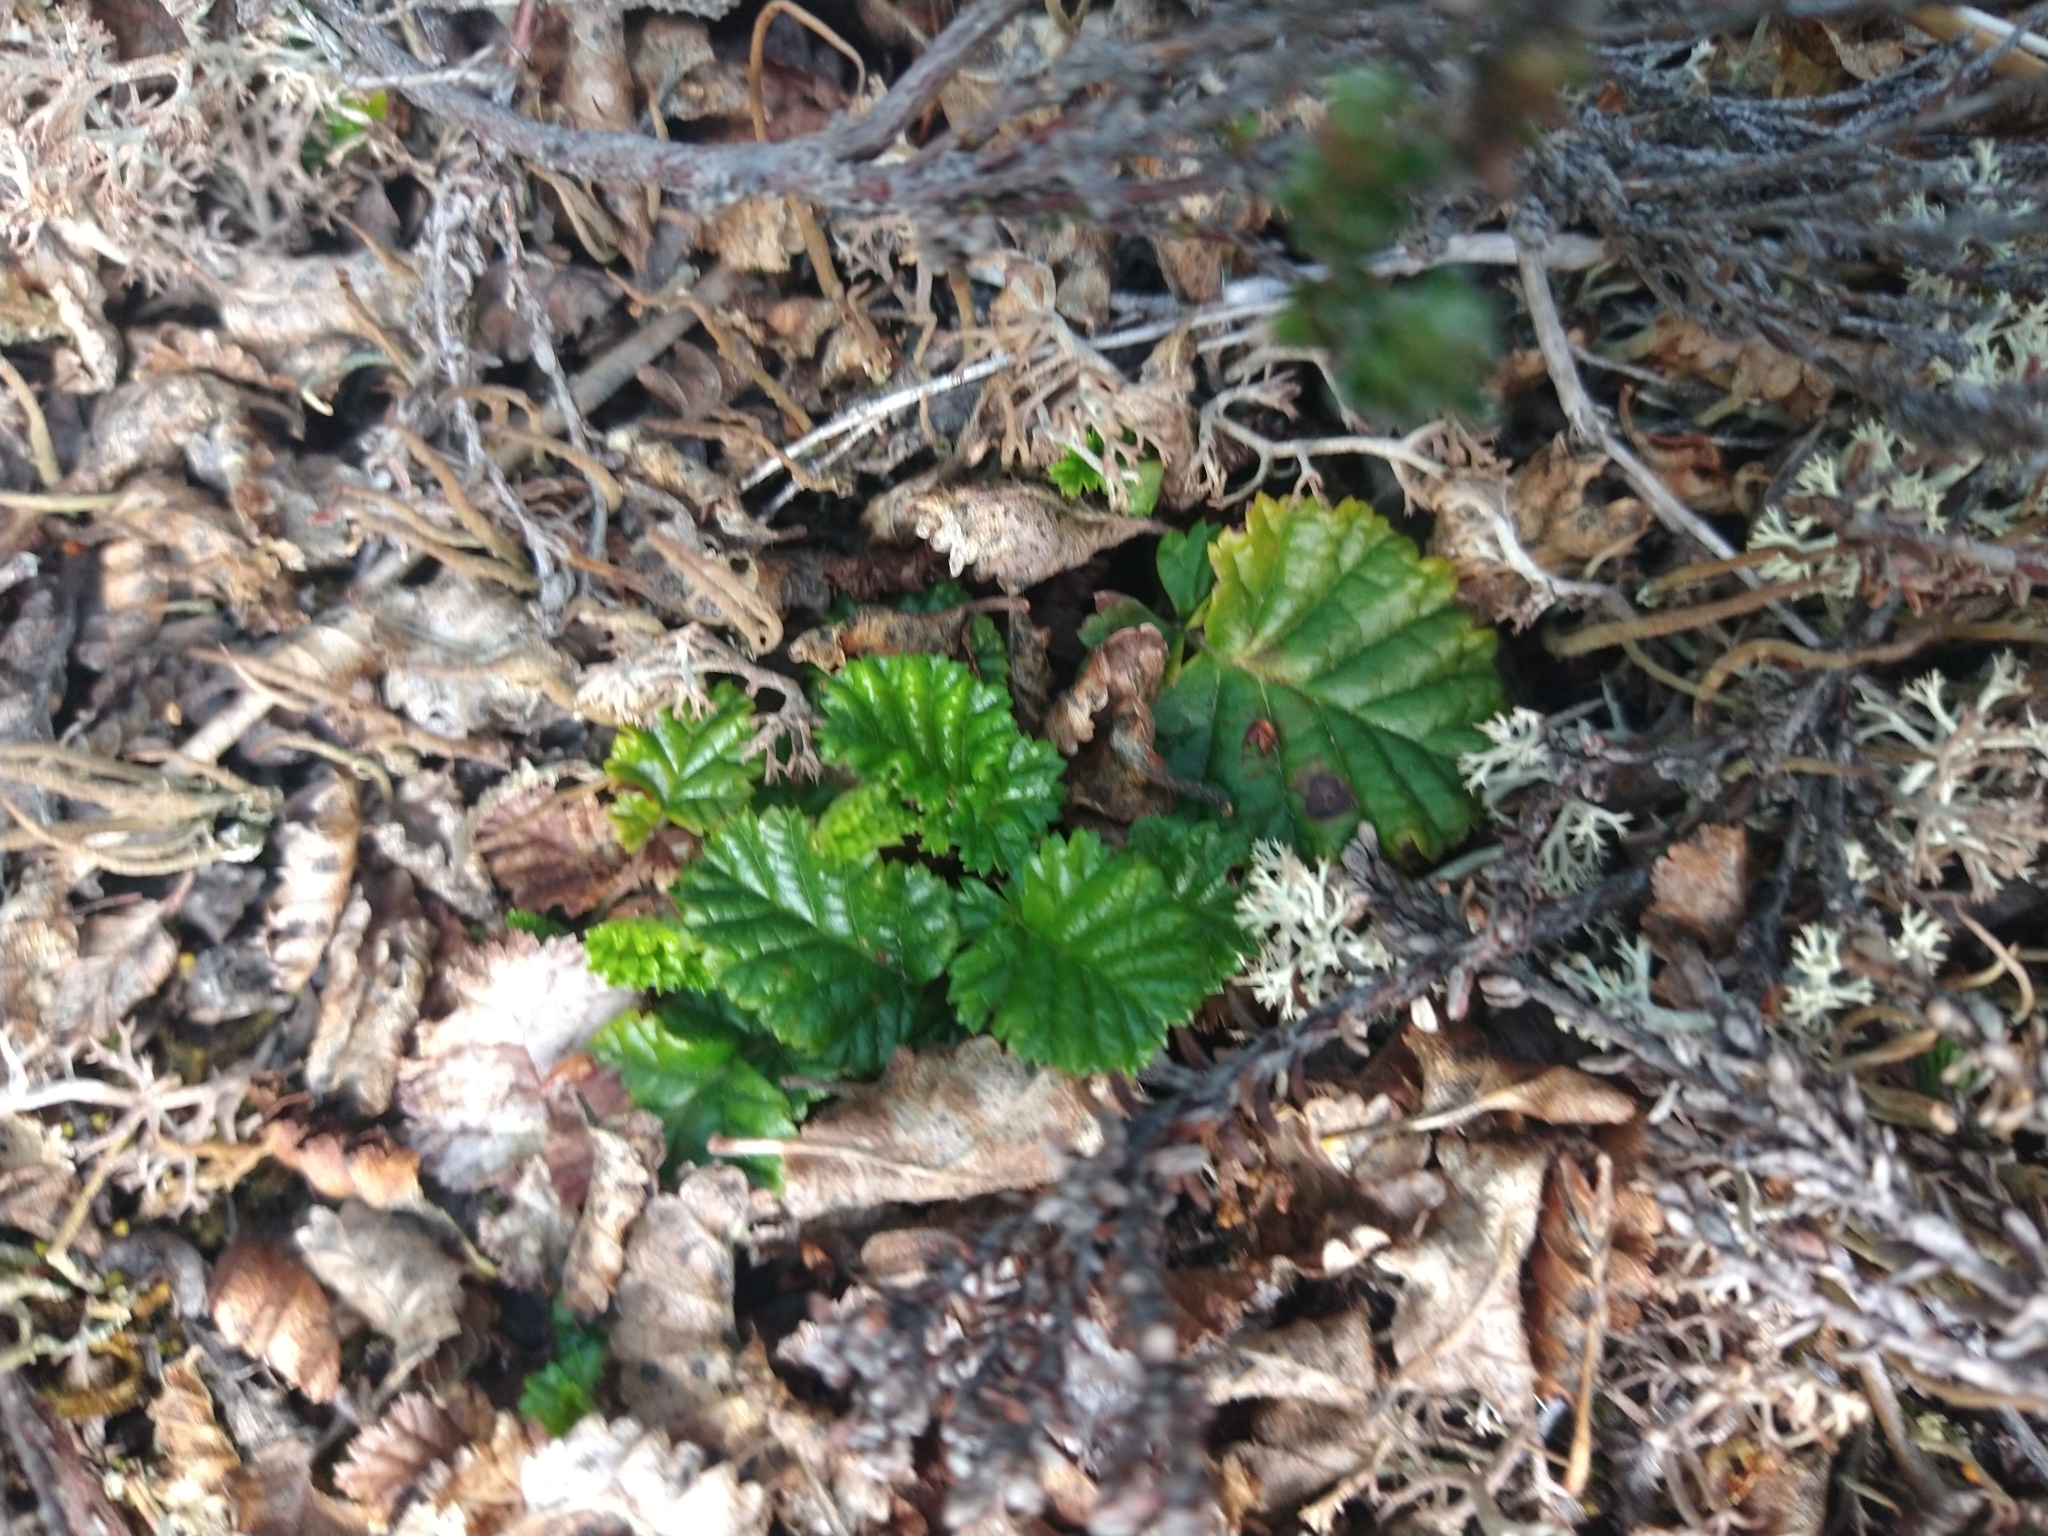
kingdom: Plantae
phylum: Tracheophyta
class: Magnoliopsida
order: Rosales
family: Rosaceae
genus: Rubus
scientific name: Rubus geoides
